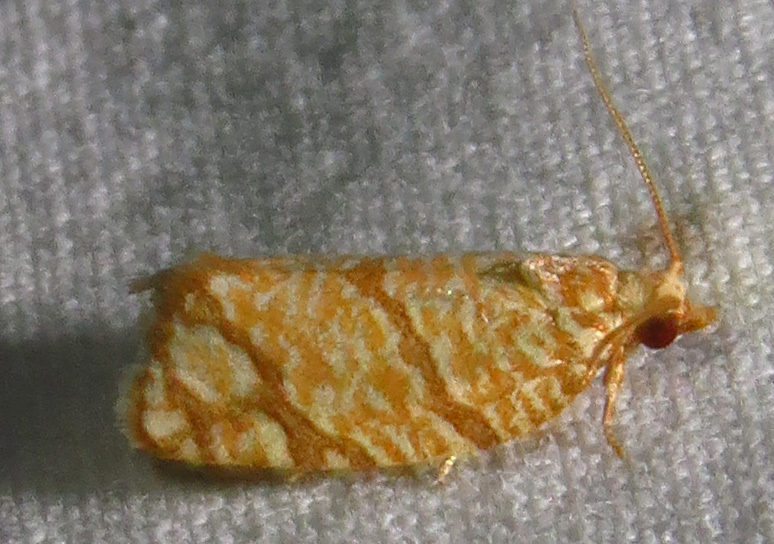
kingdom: Animalia
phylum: Arthropoda
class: Insecta
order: Lepidoptera
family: Tortricidae
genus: Argyrotaenia
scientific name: Argyrotaenia quercifoliana
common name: Yellow-winged oak leafroller moth
